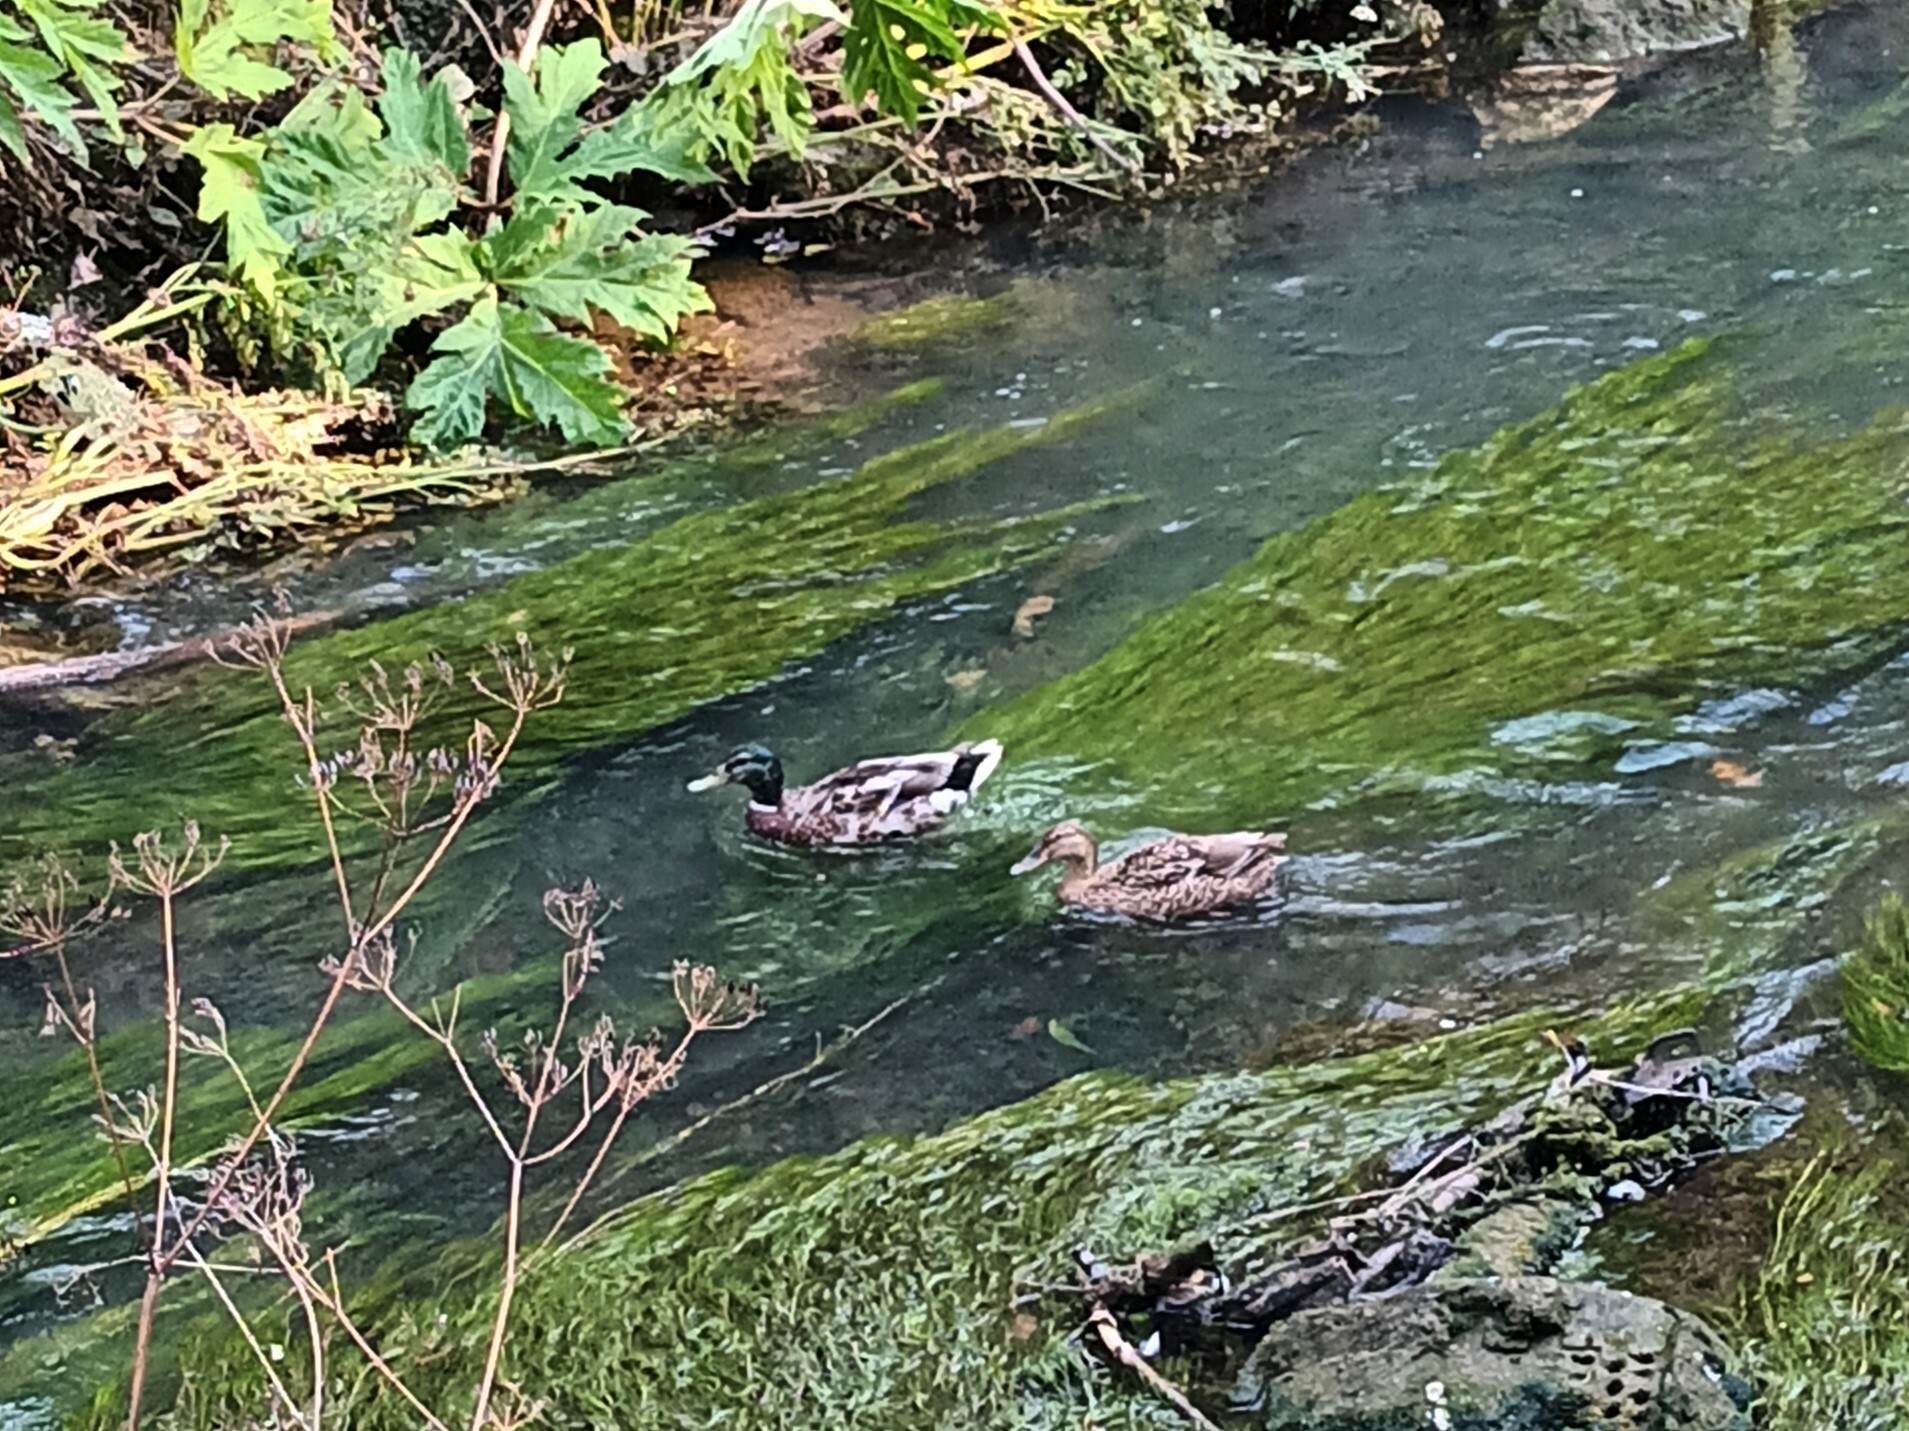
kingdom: Animalia
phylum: Chordata
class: Aves
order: Anseriformes
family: Anatidae
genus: Anas
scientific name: Anas platyrhynchos
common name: Mallard
